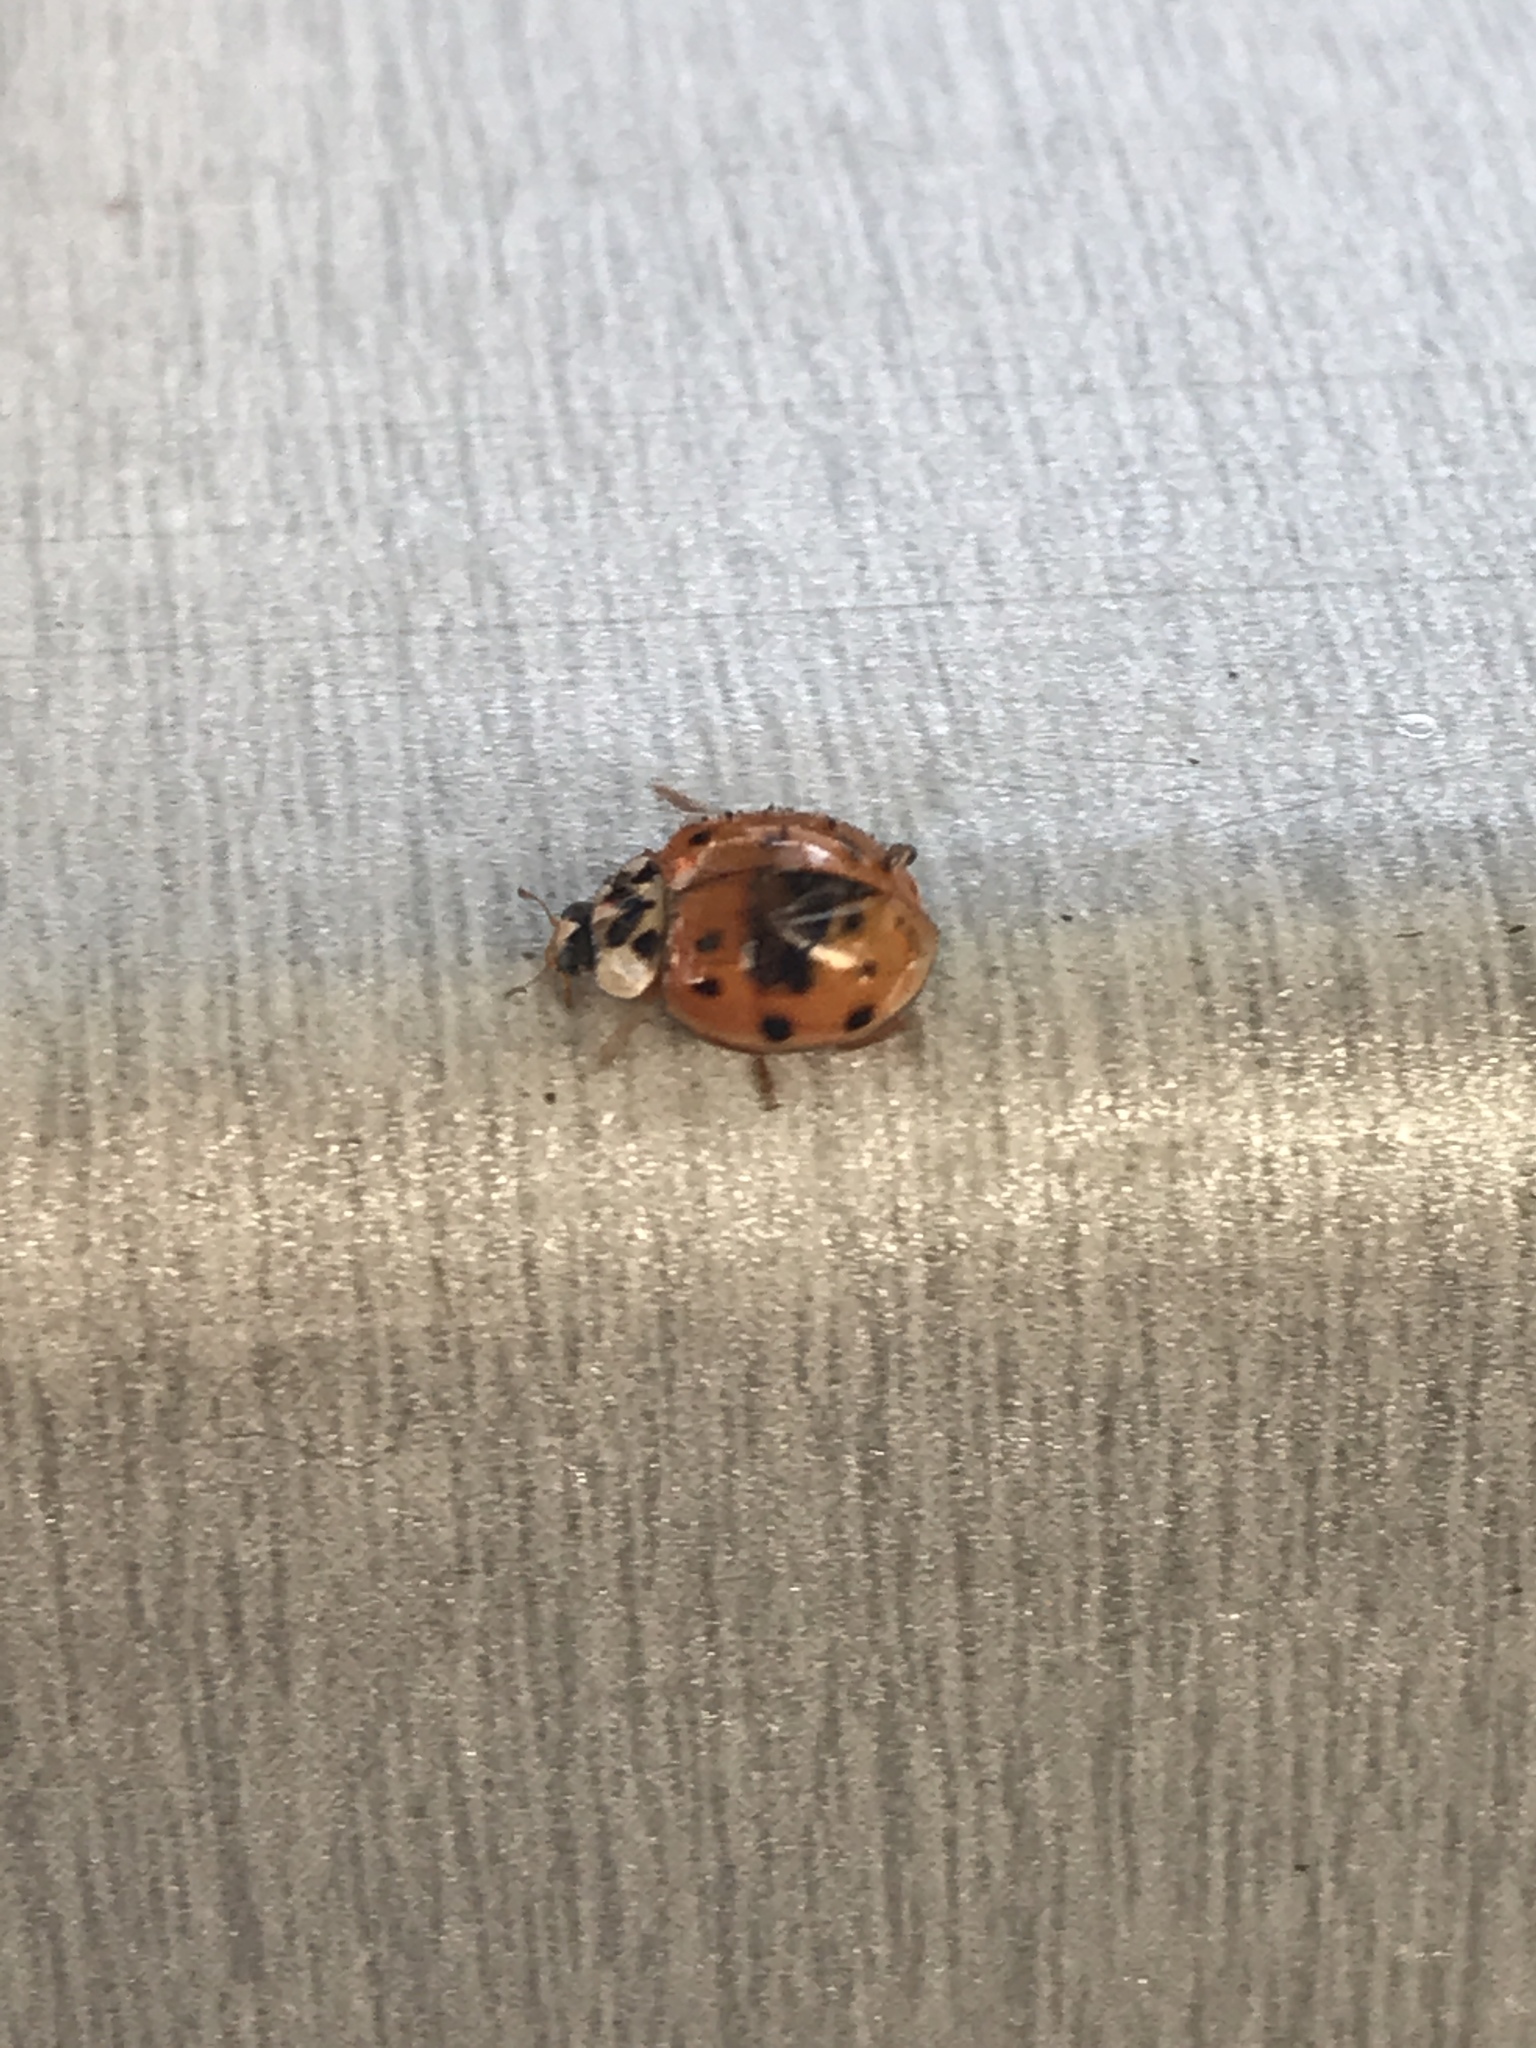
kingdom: Animalia
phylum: Arthropoda
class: Insecta
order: Coleoptera
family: Coccinellidae
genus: Harmonia
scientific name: Harmonia axyridis
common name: Harlequin ladybird
